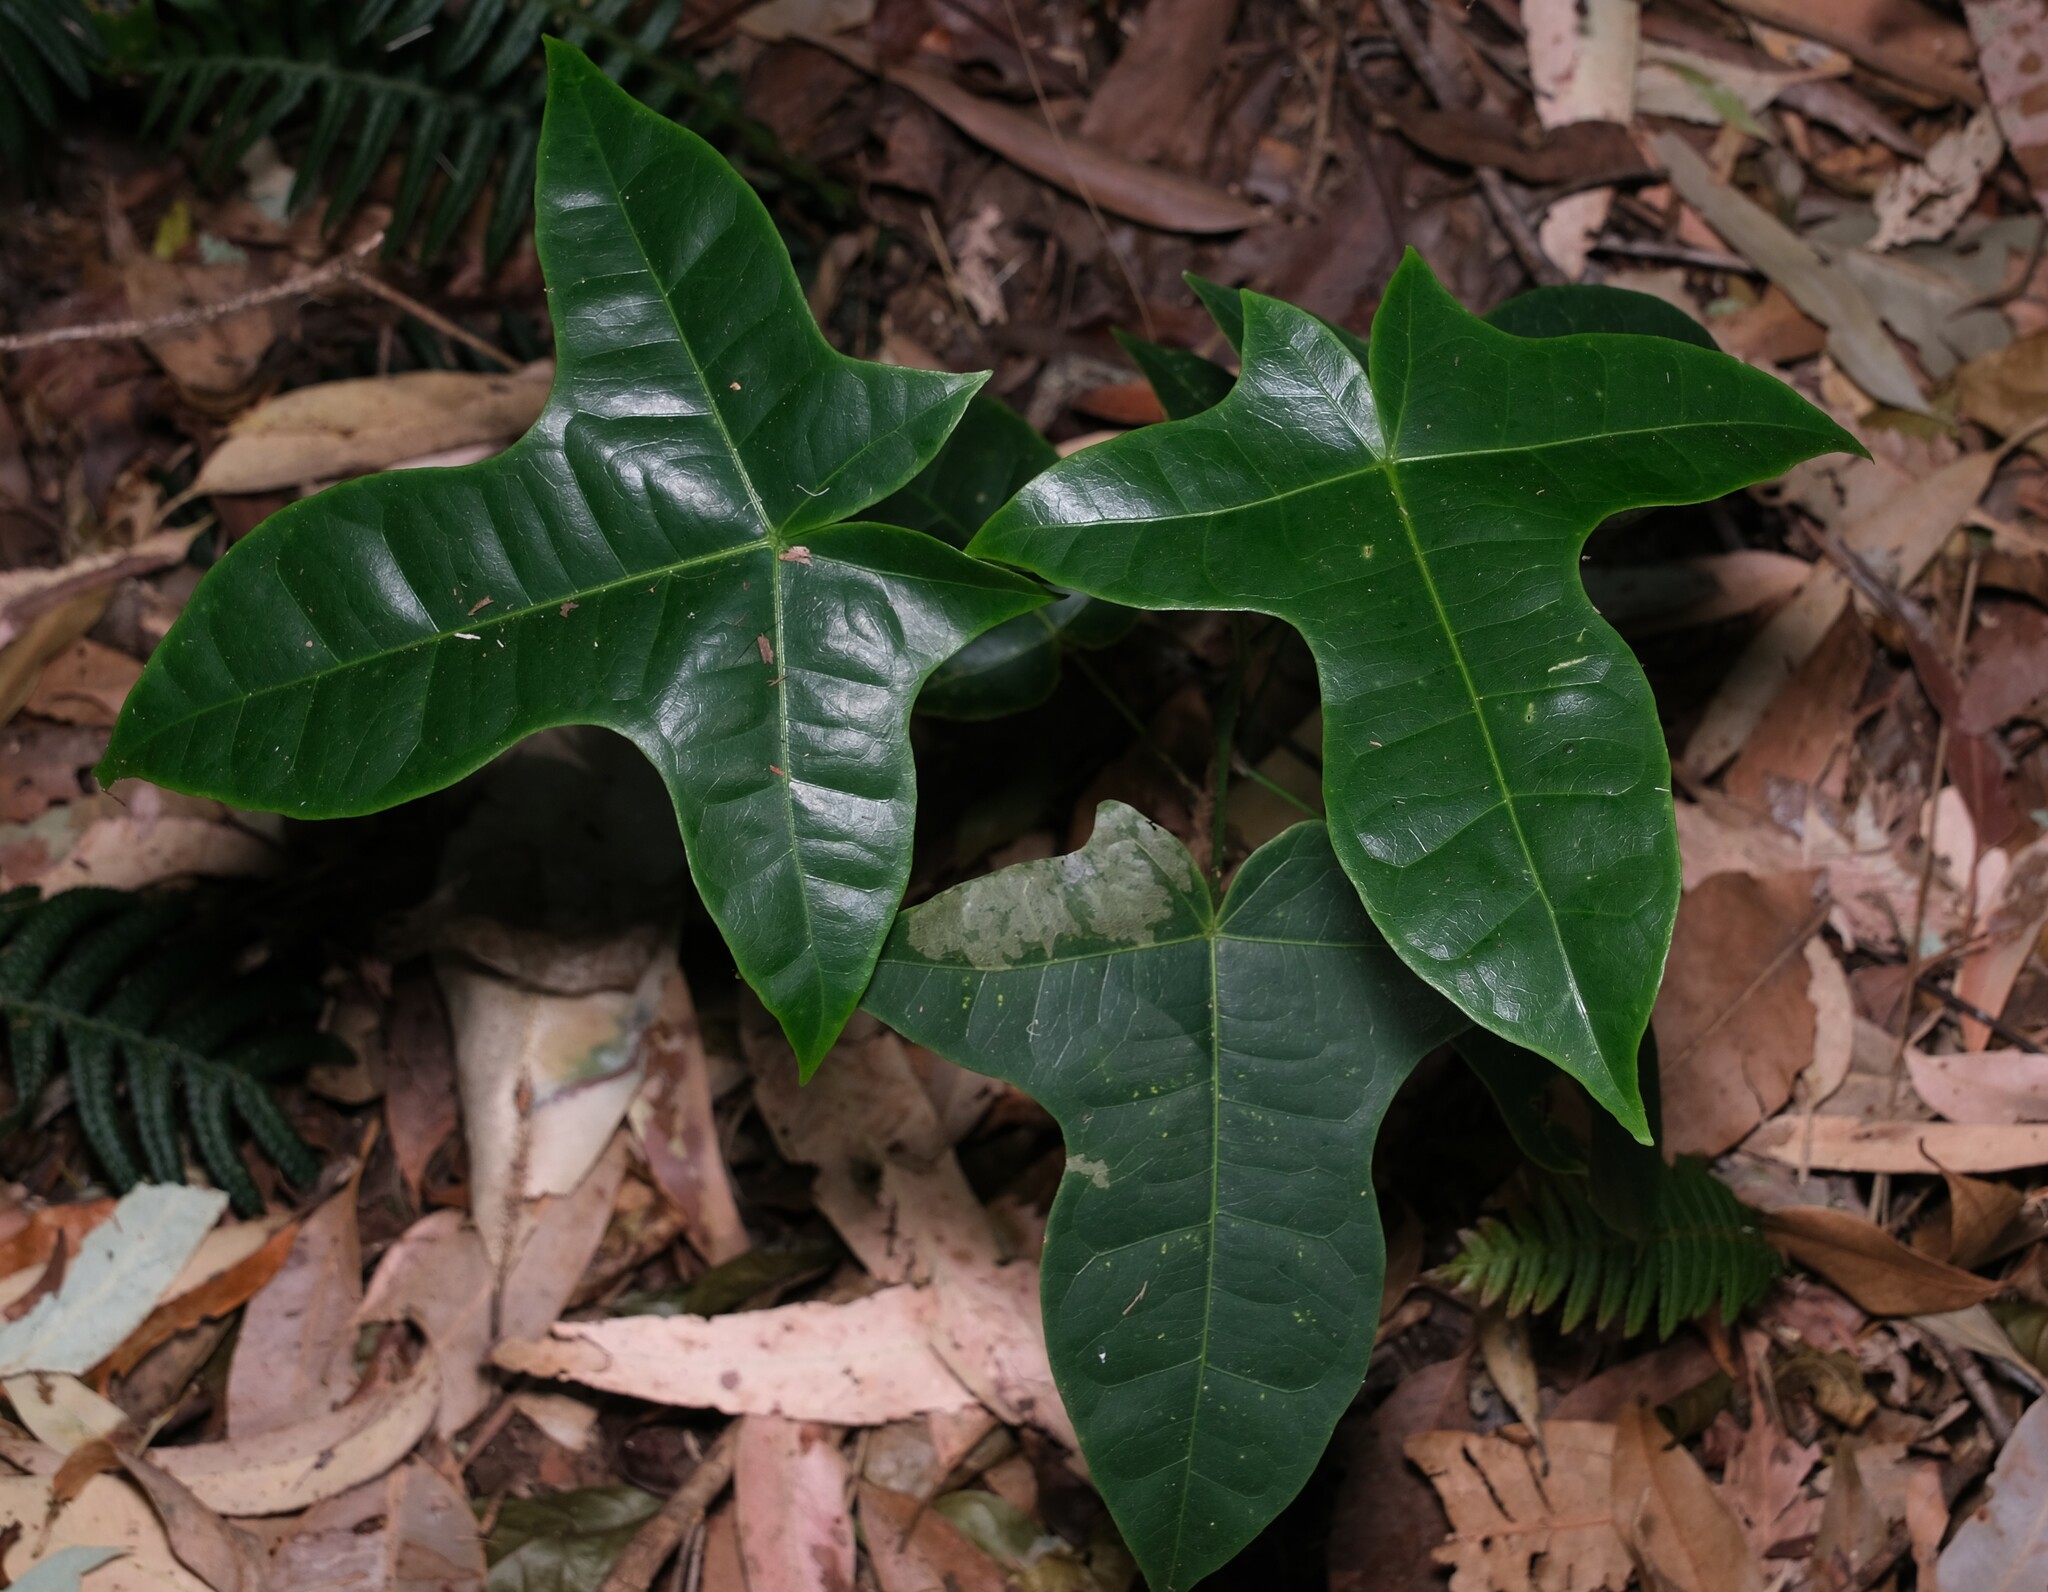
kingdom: Plantae
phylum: Tracheophyta
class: Magnoliopsida
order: Malvales
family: Malvaceae
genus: Brachychiton
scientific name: Brachychiton acerifolius
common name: Illawarra flame tree
